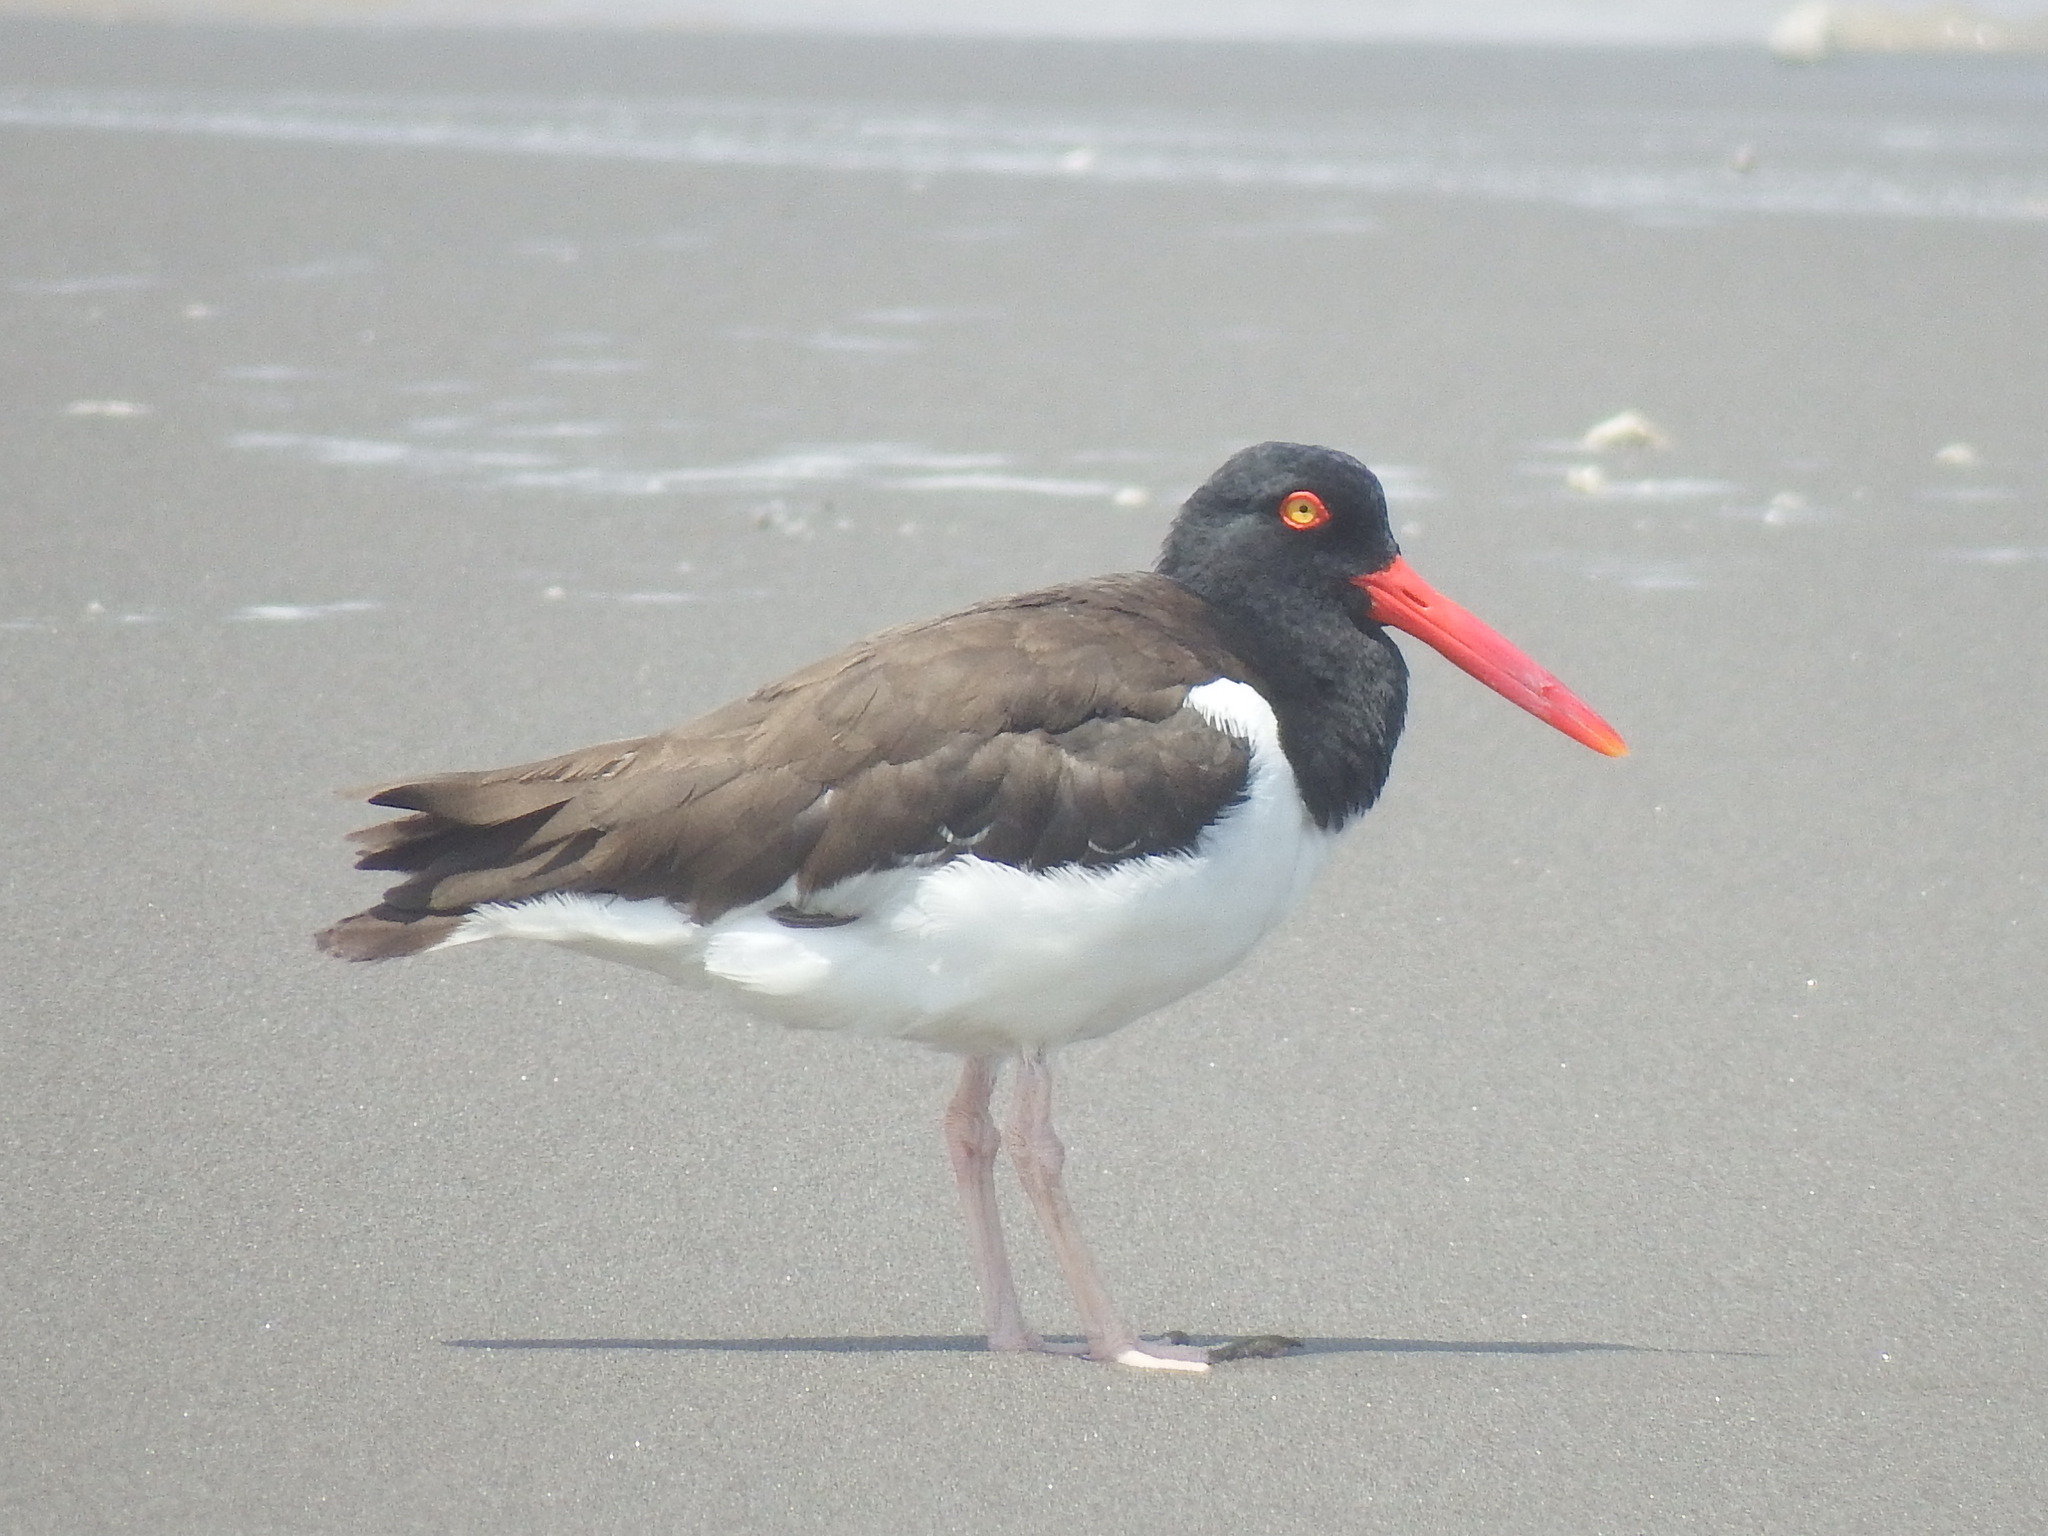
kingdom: Animalia
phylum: Chordata
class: Aves
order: Charadriiformes
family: Haematopodidae
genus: Haematopus
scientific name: Haematopus palliatus
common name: American oystercatcher
